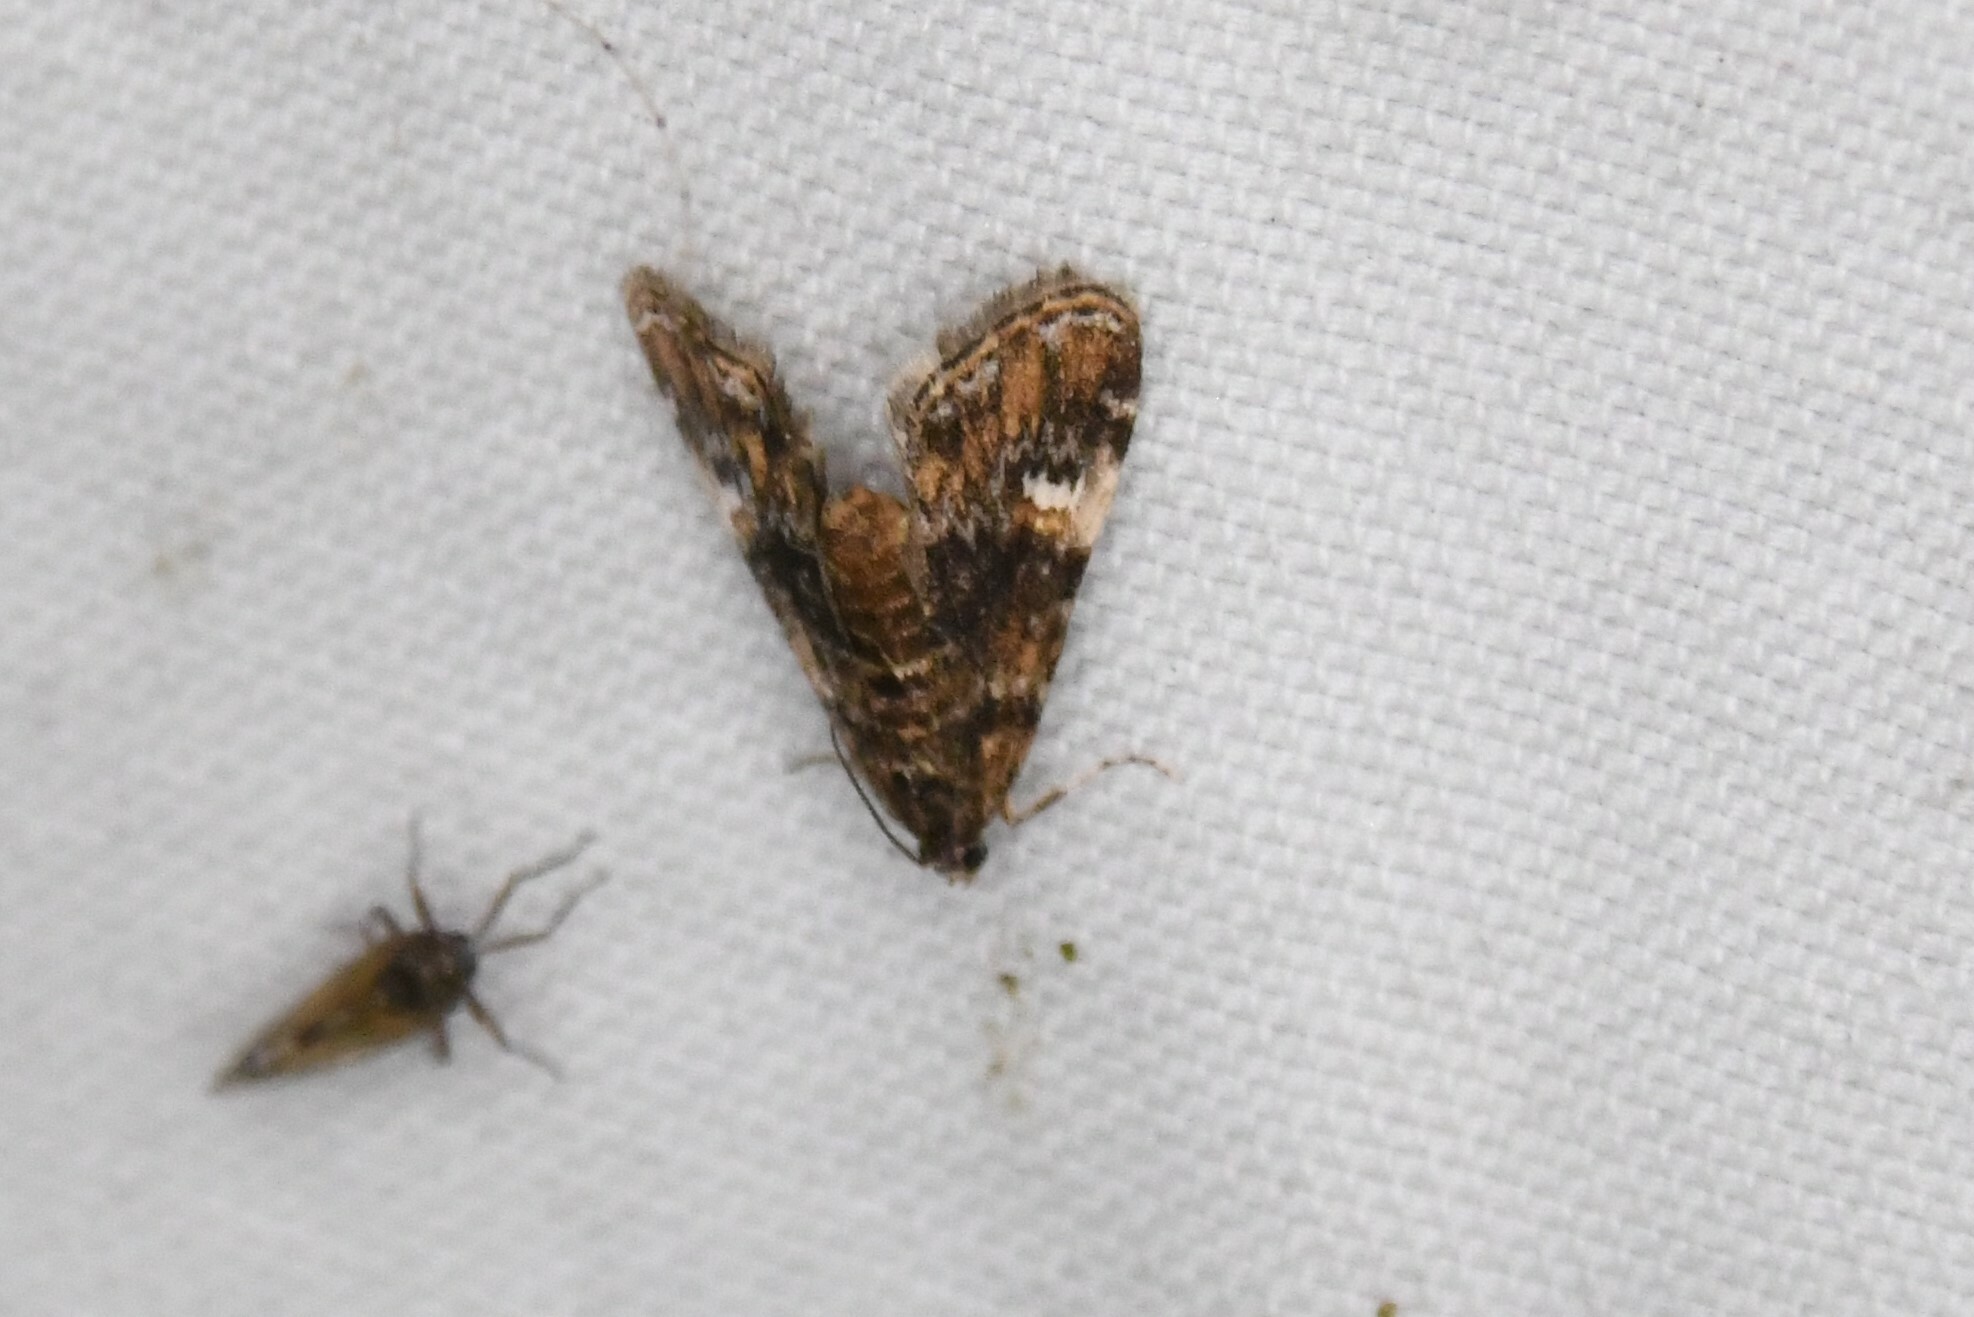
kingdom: Animalia
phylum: Arthropoda
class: Insecta
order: Lepidoptera
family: Crambidae
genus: Elophila
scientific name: Elophila obliteralis
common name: Waterlily leafcutter moth
